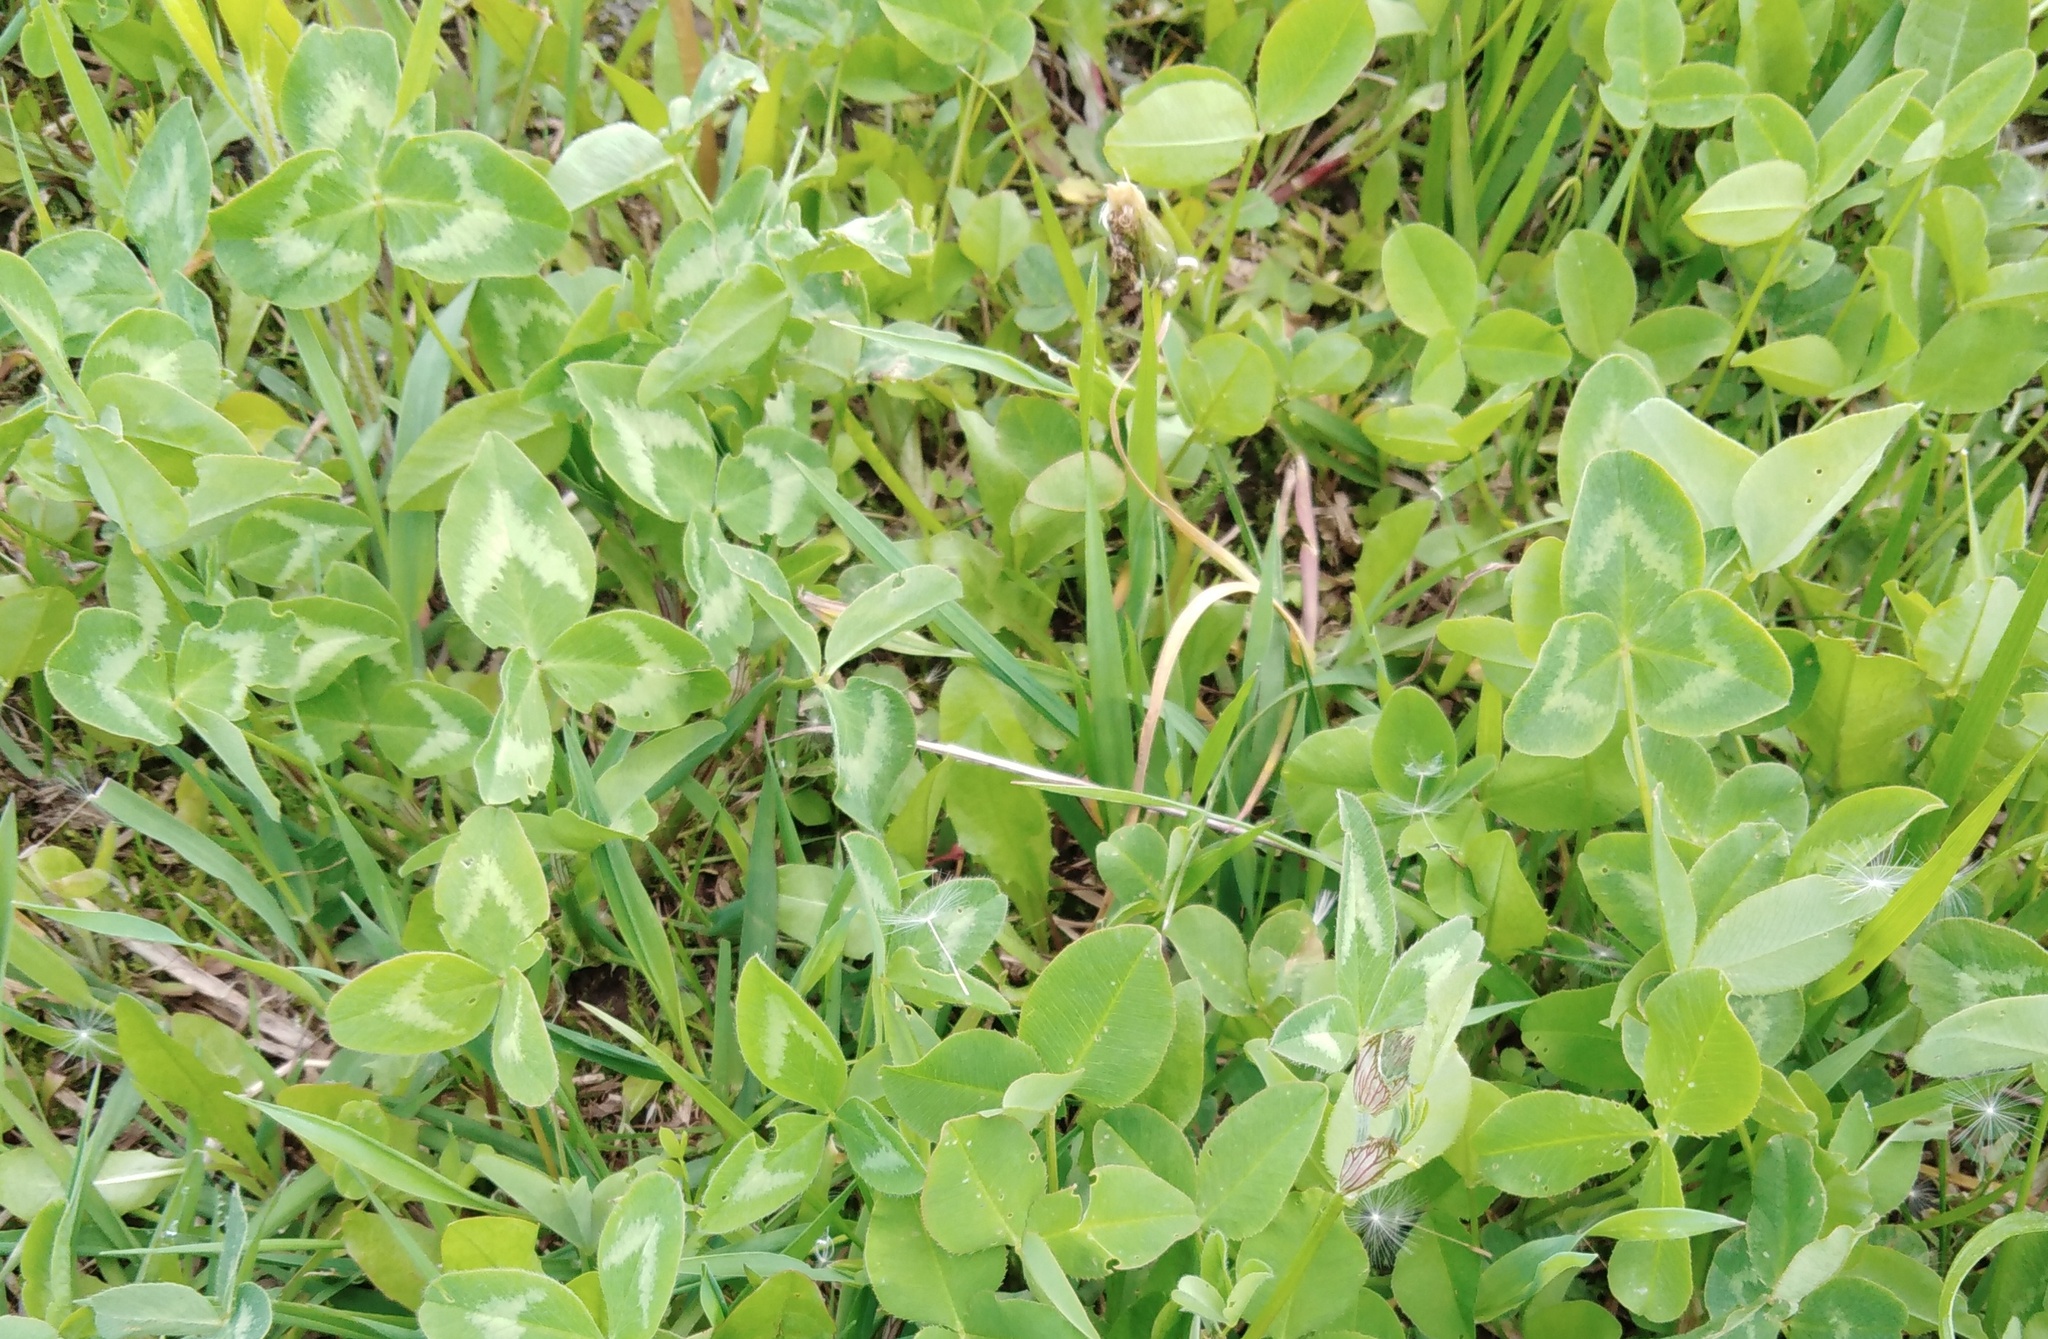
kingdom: Plantae
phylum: Tracheophyta
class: Magnoliopsida
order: Fabales
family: Fabaceae
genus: Trifolium
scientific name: Trifolium pratense
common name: Red clover
